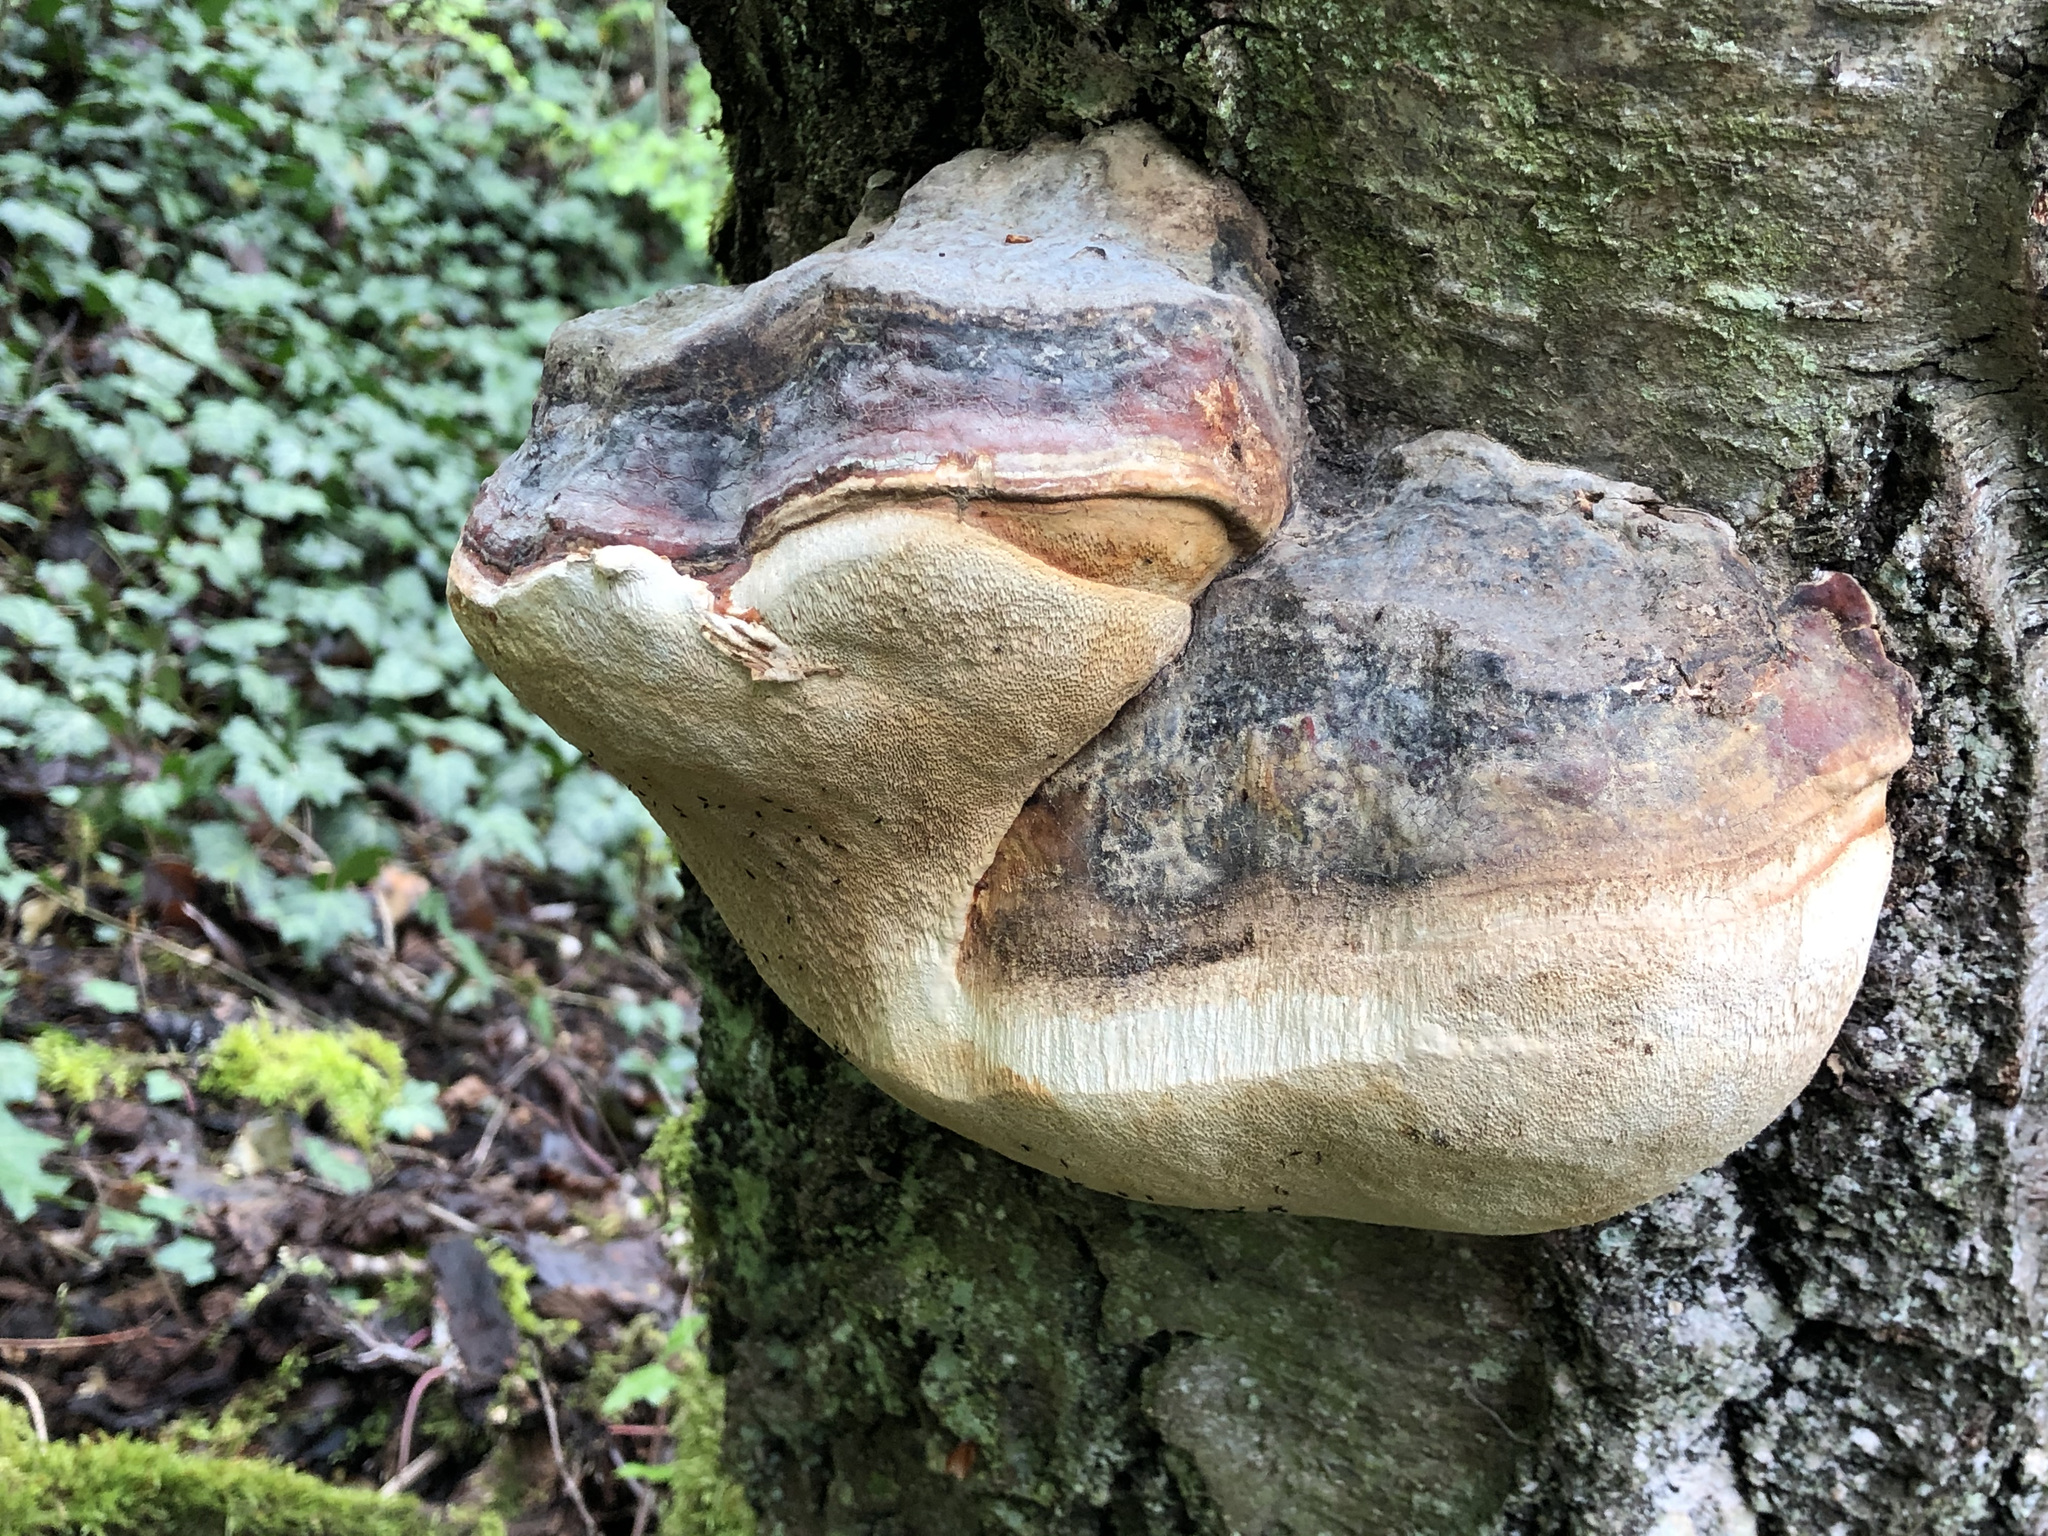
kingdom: Fungi
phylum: Basidiomycota
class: Agaricomycetes
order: Polyporales
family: Fomitopsidaceae
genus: Fomitopsis
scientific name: Fomitopsis pinicola
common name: Red-belted bracket
